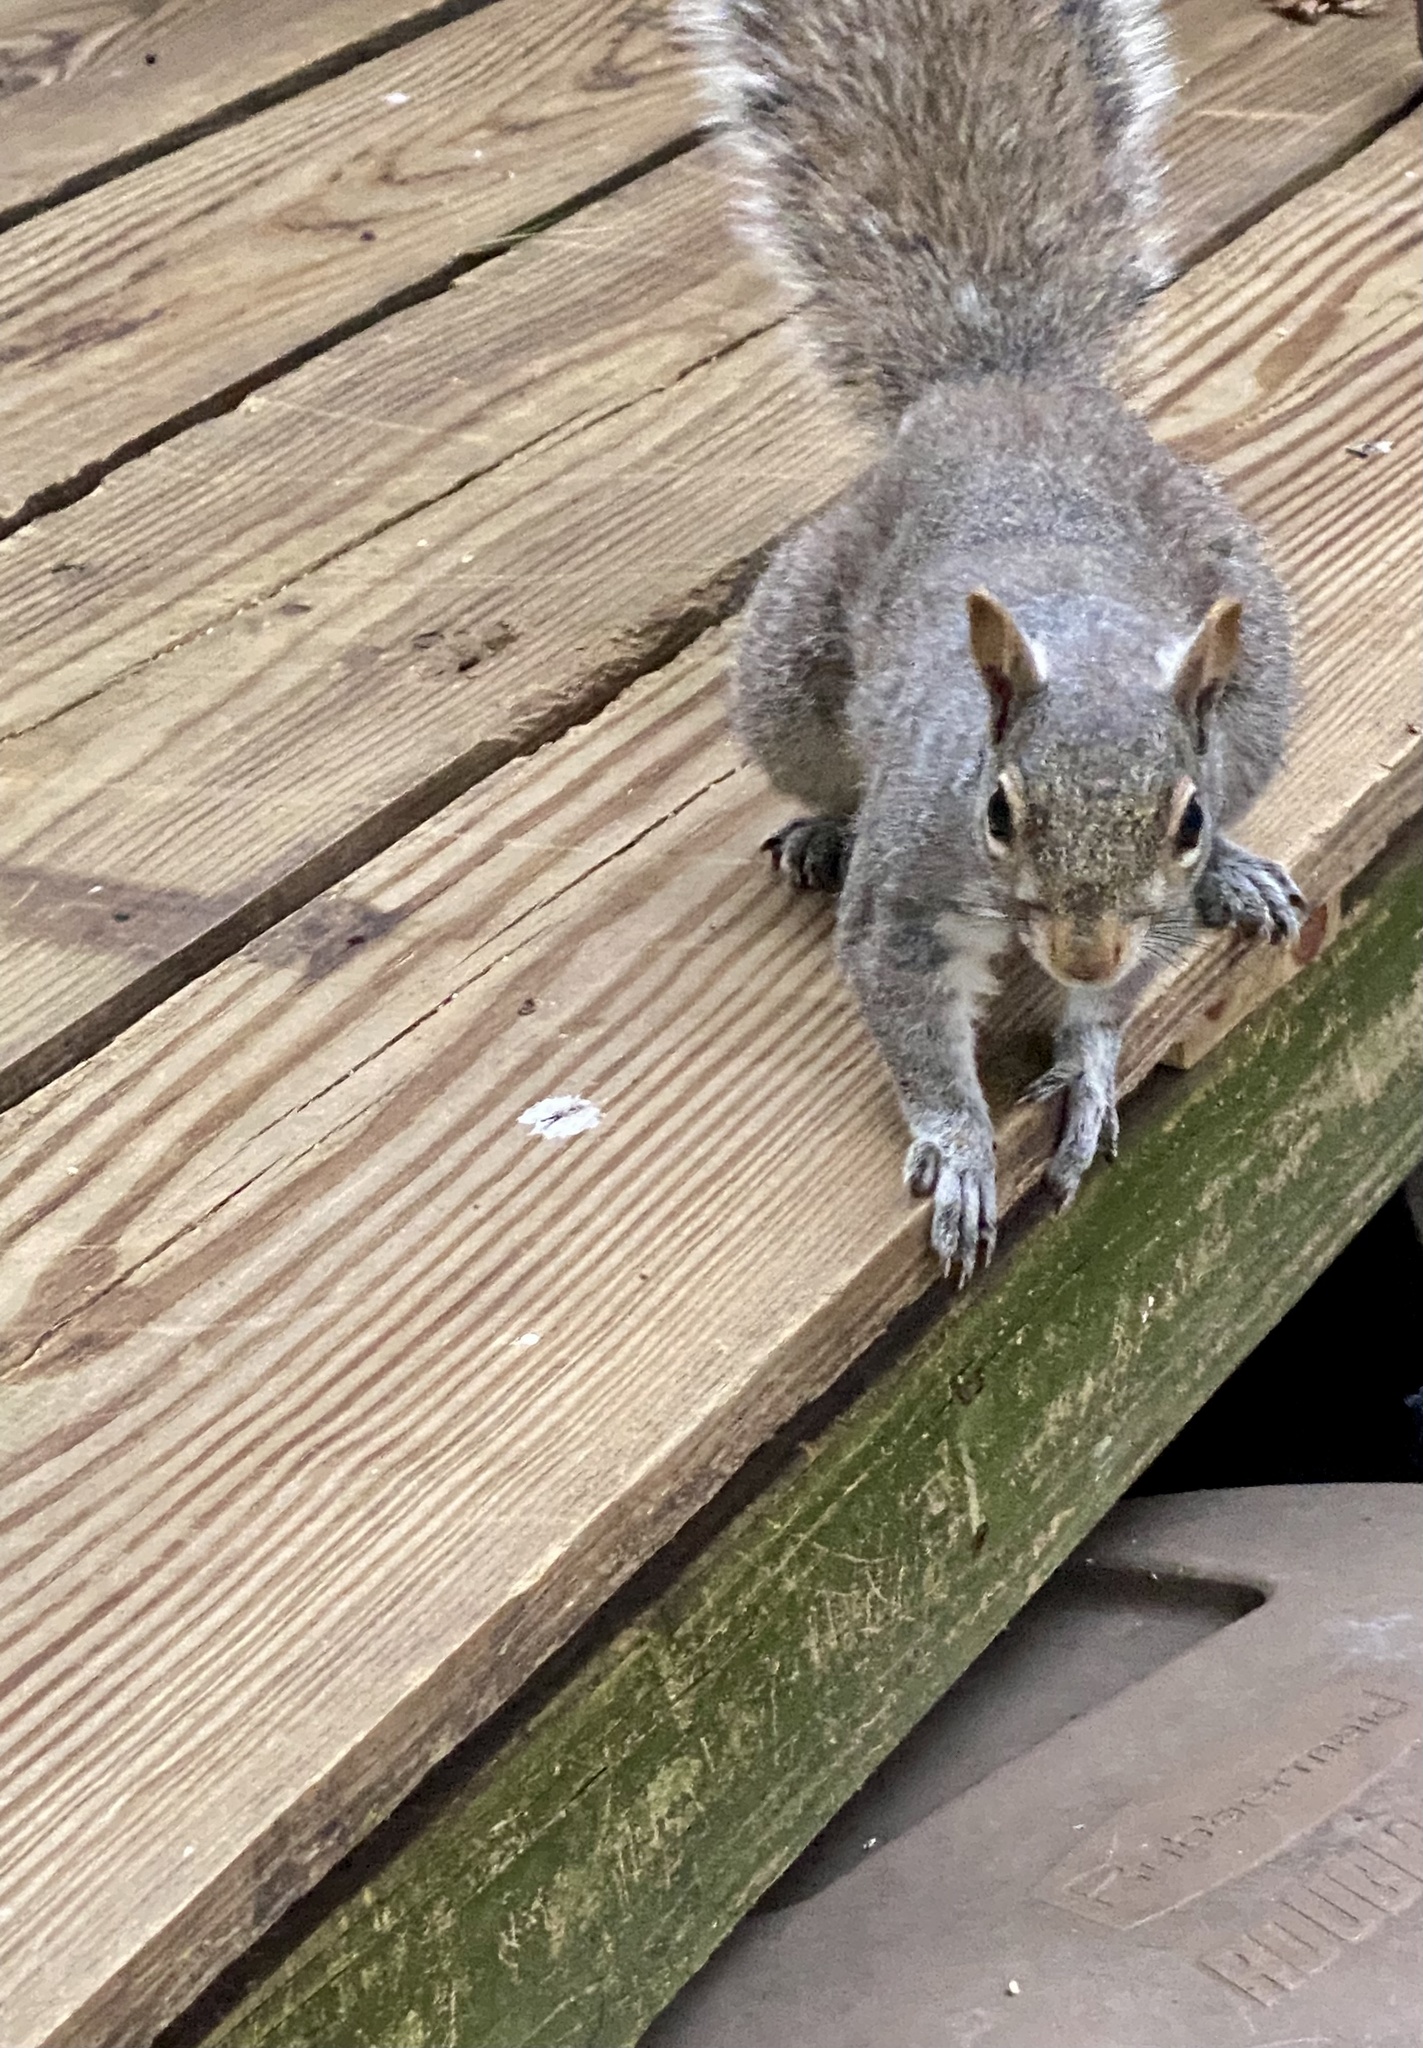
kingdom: Animalia
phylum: Chordata
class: Mammalia
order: Rodentia
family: Sciuridae
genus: Sciurus
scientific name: Sciurus carolinensis
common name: Eastern gray squirrel
